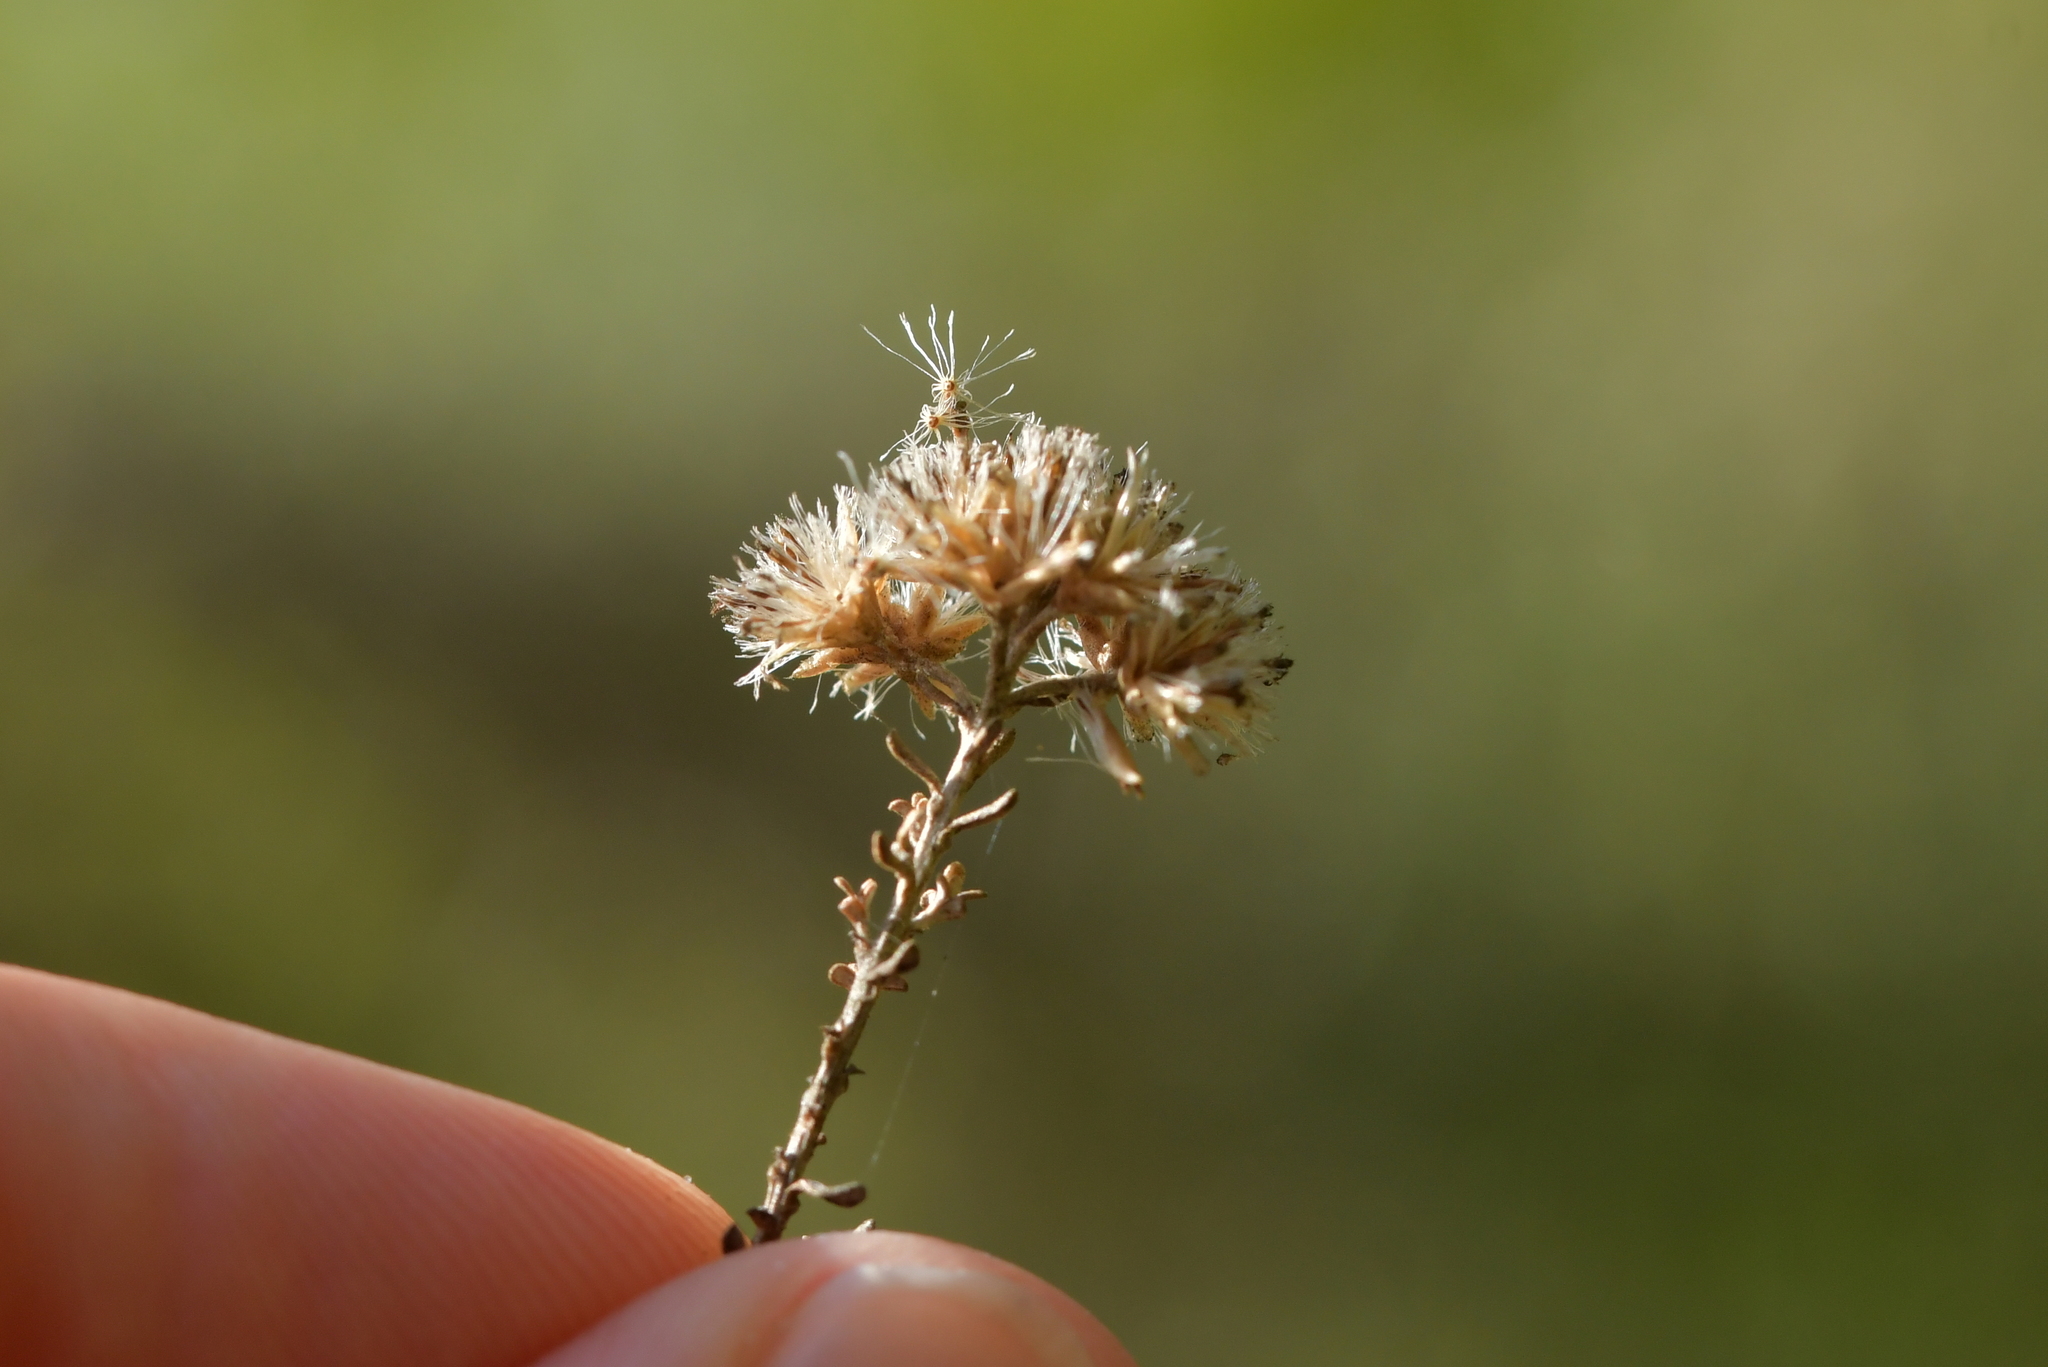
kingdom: Plantae
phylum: Tracheophyta
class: Magnoliopsida
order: Asterales
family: Asteraceae
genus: Ozothamnus
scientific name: Ozothamnus leptophyllus
